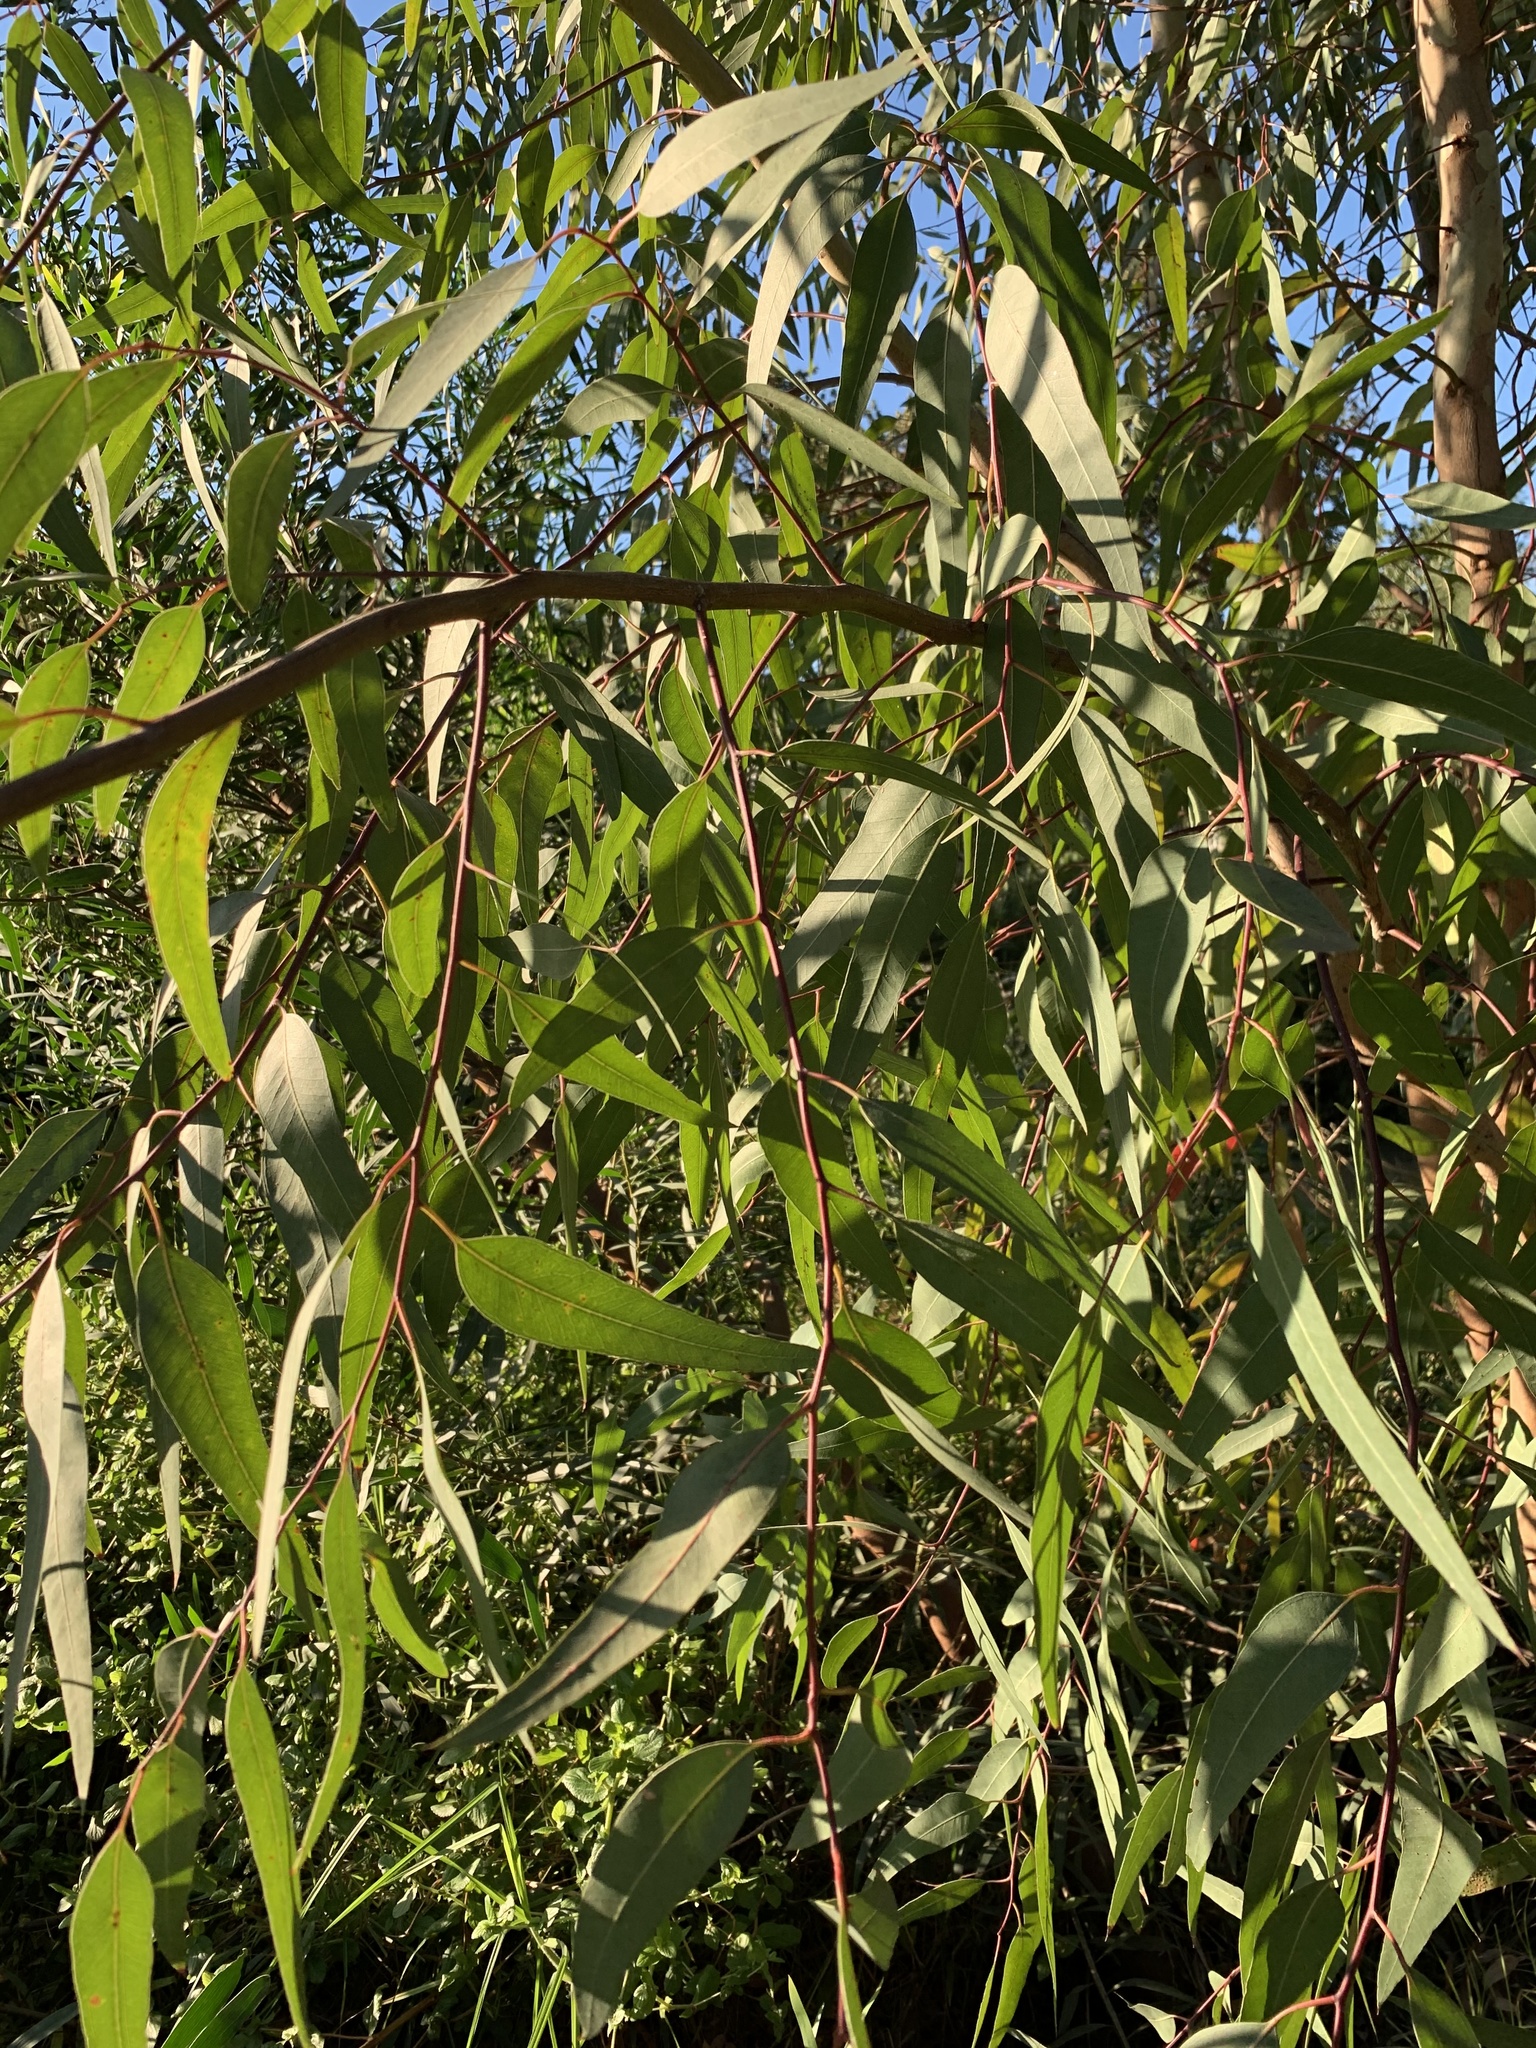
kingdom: Plantae
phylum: Tracheophyta
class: Magnoliopsida
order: Myrtales
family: Myrtaceae
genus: Eucalyptus
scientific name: Eucalyptus camaldulensis
